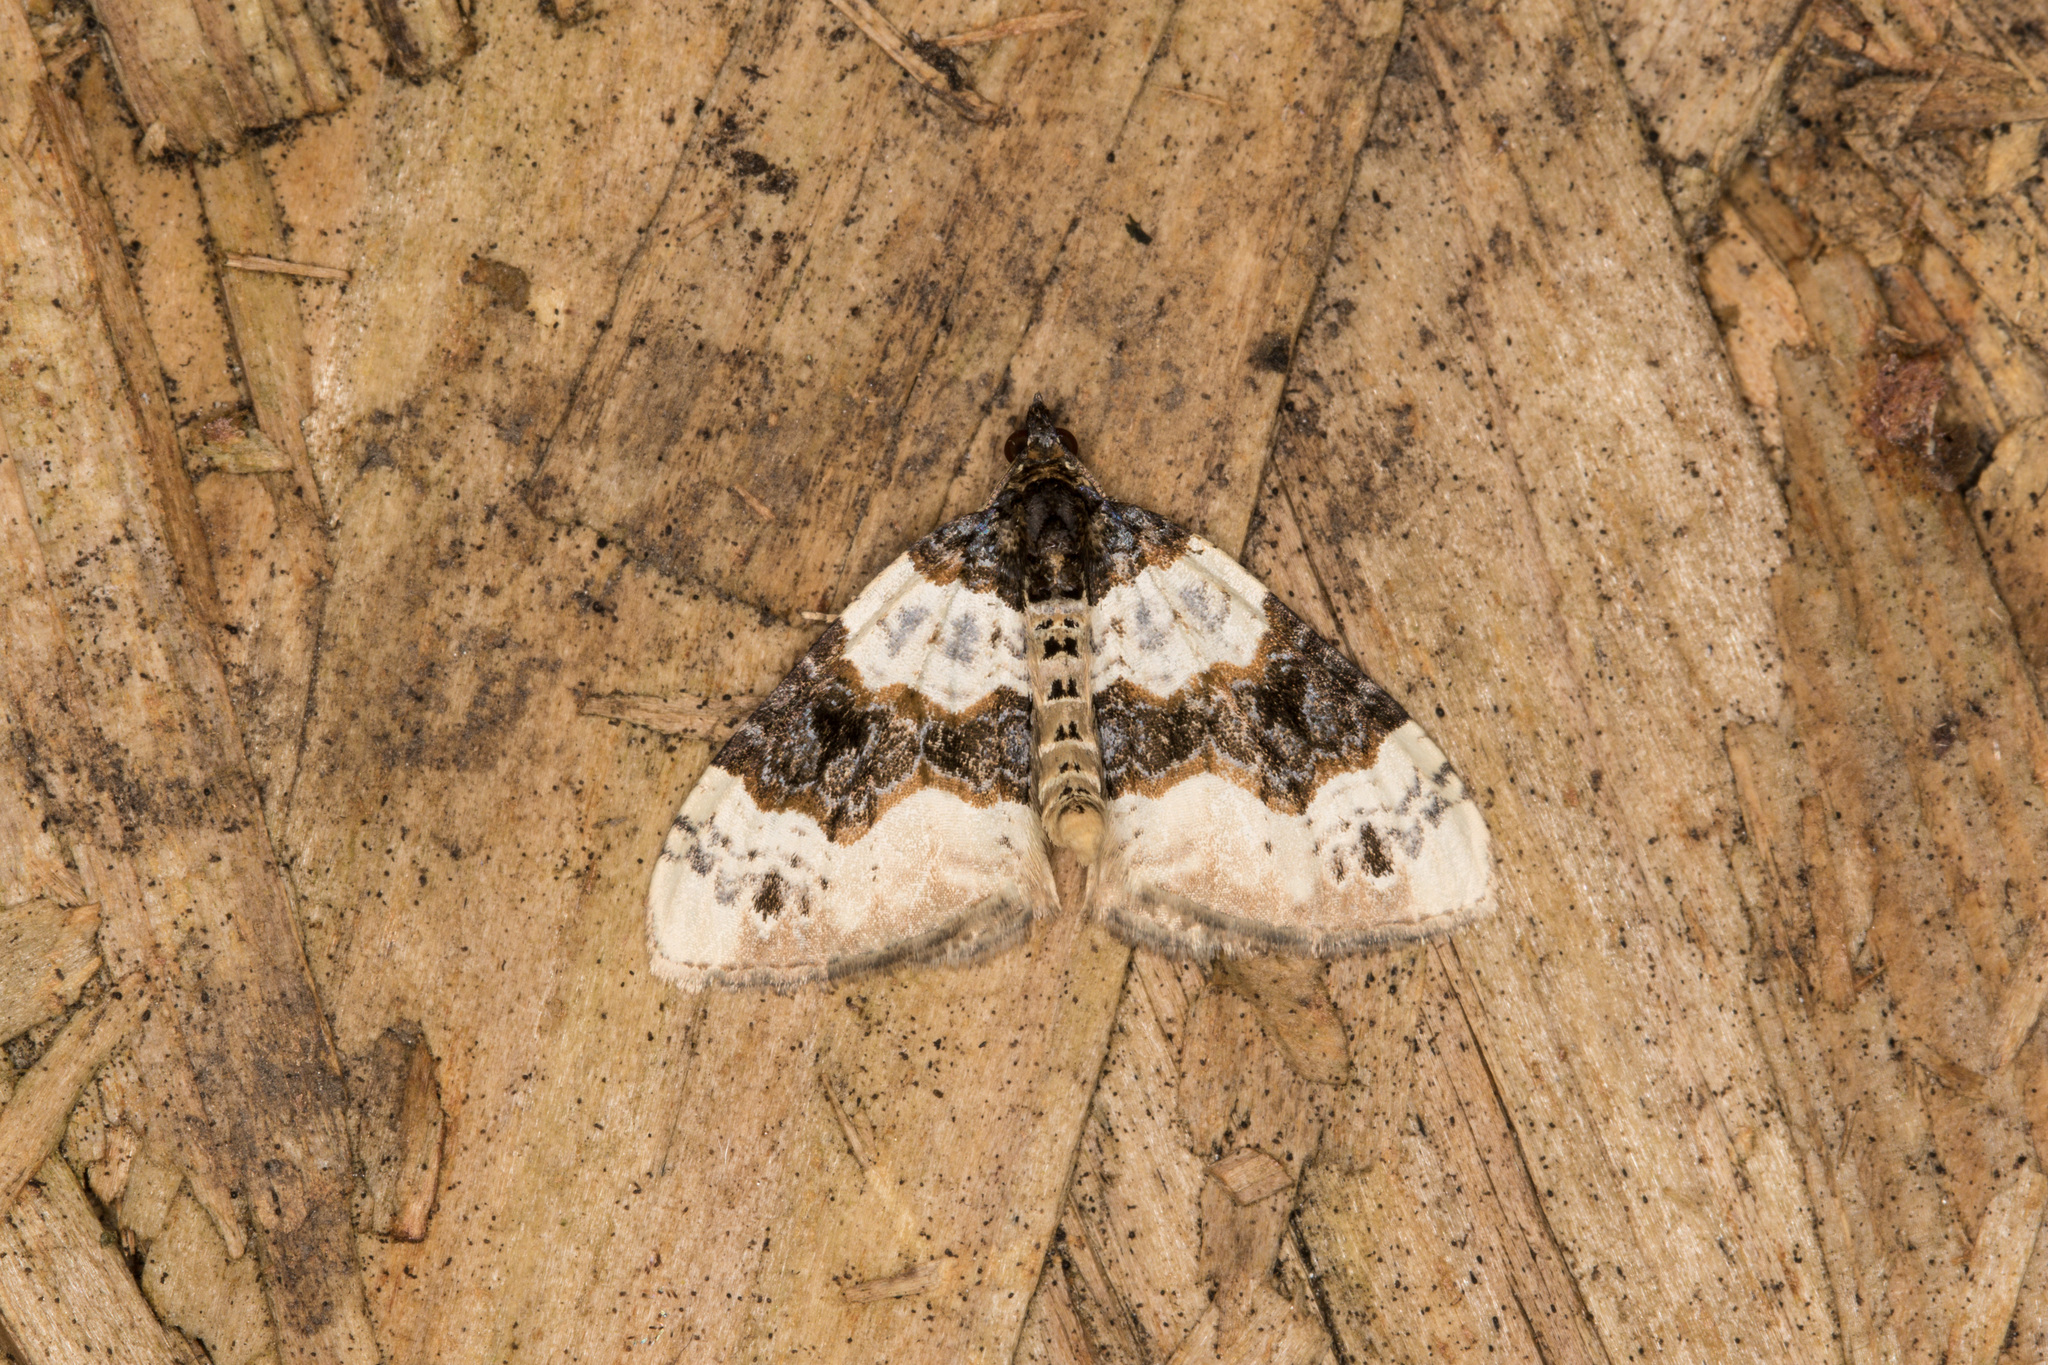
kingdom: Animalia
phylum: Arthropoda
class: Insecta
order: Lepidoptera
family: Geometridae
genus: Cosmorhoe
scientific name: Cosmorhoe ocellata
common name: Purple bar
